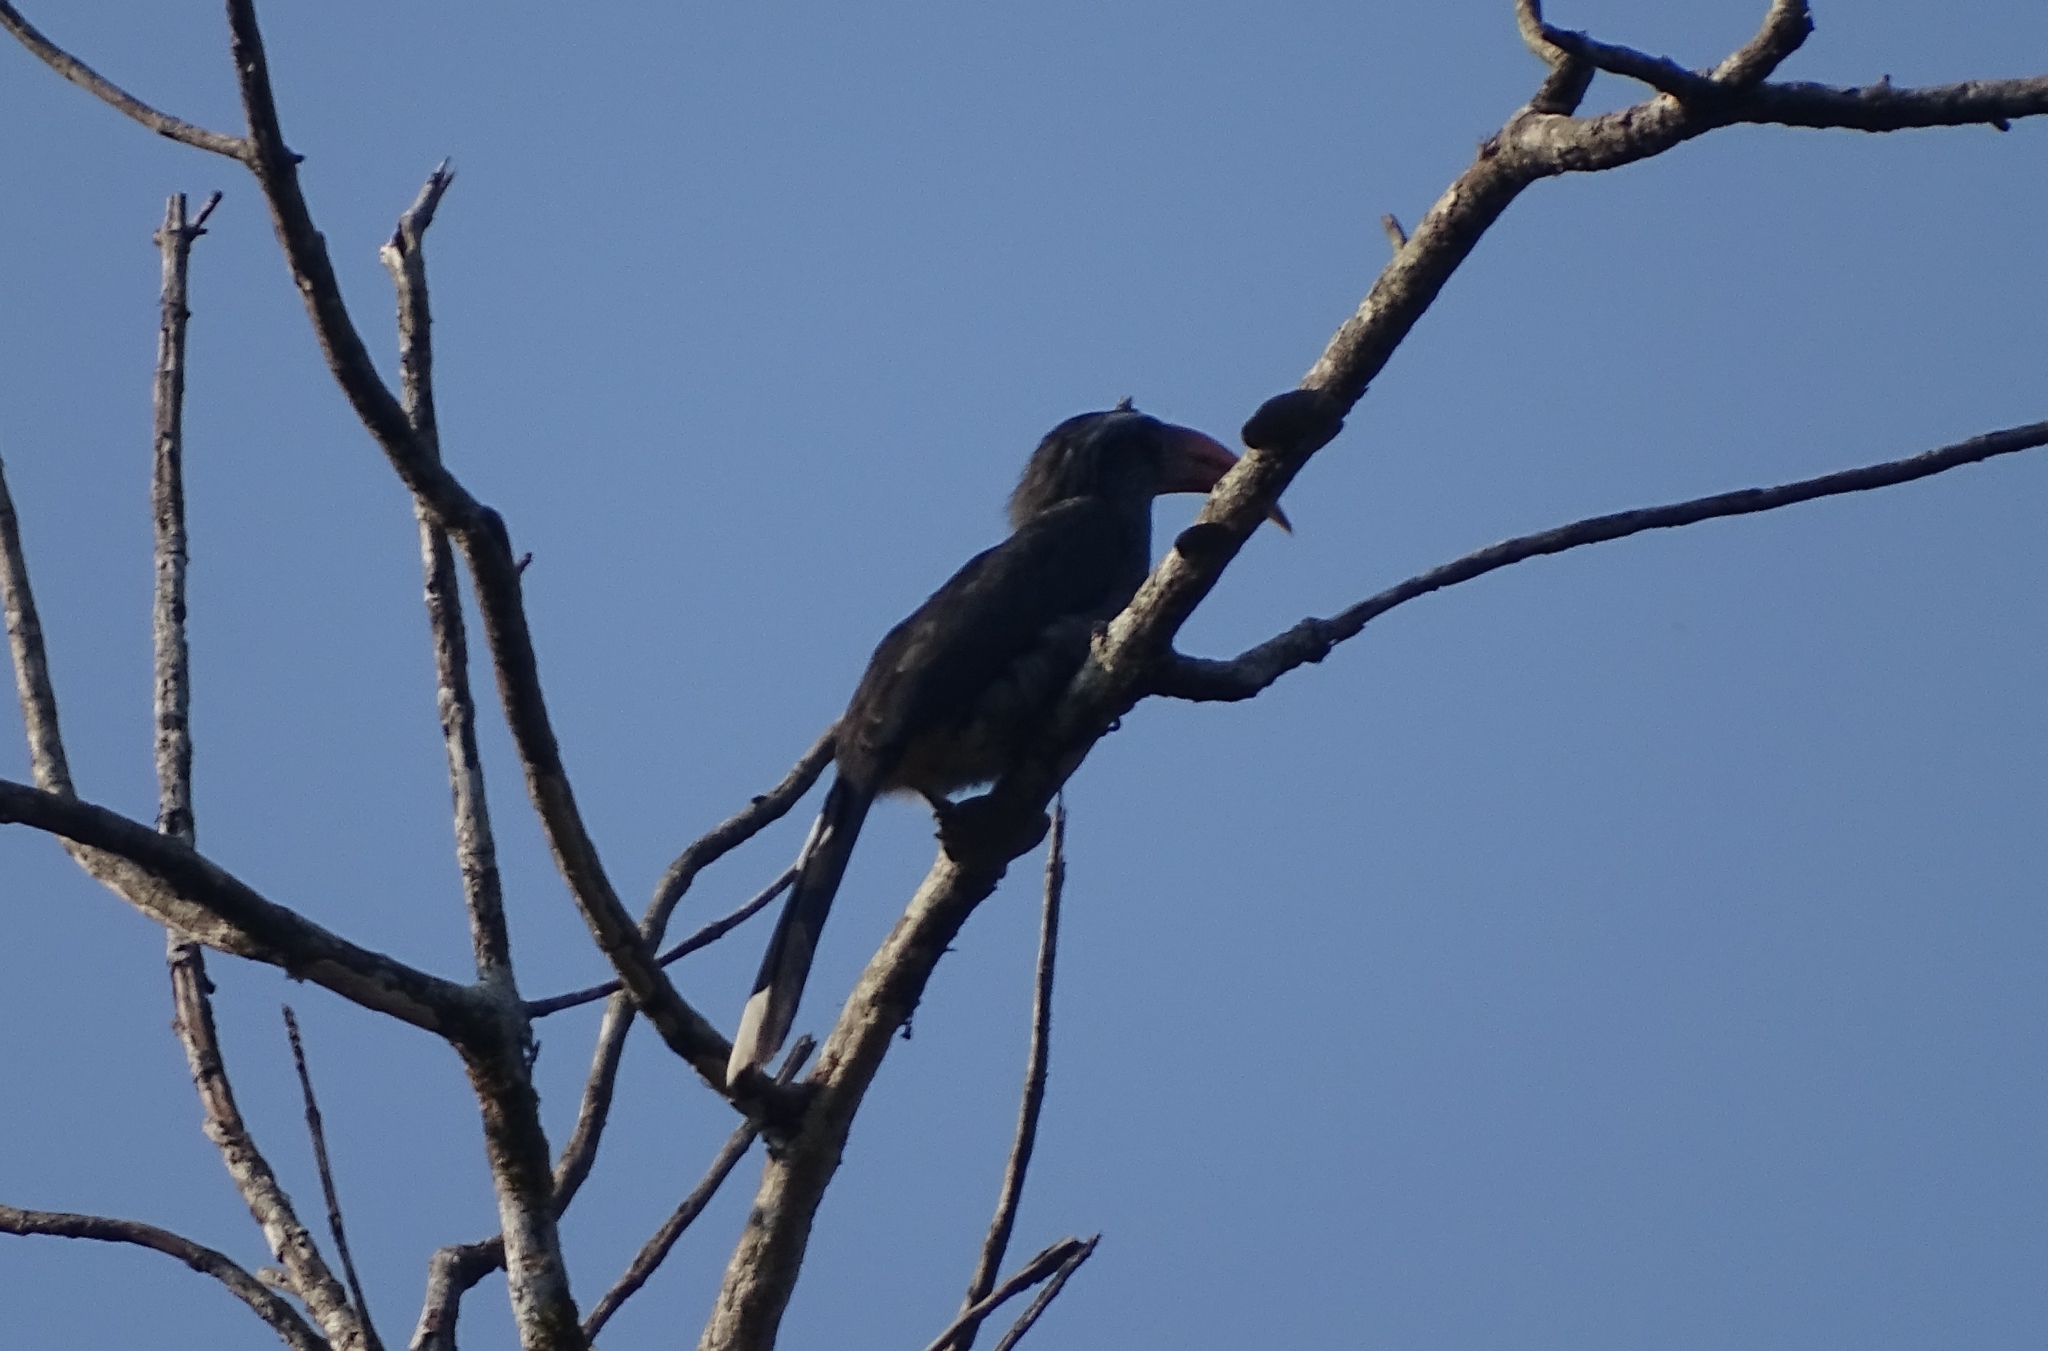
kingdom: Animalia
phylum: Chordata
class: Aves
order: Bucerotiformes
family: Bucerotidae
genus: Ocyceros
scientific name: Ocyceros griseus
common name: Malabar grey hornbill
